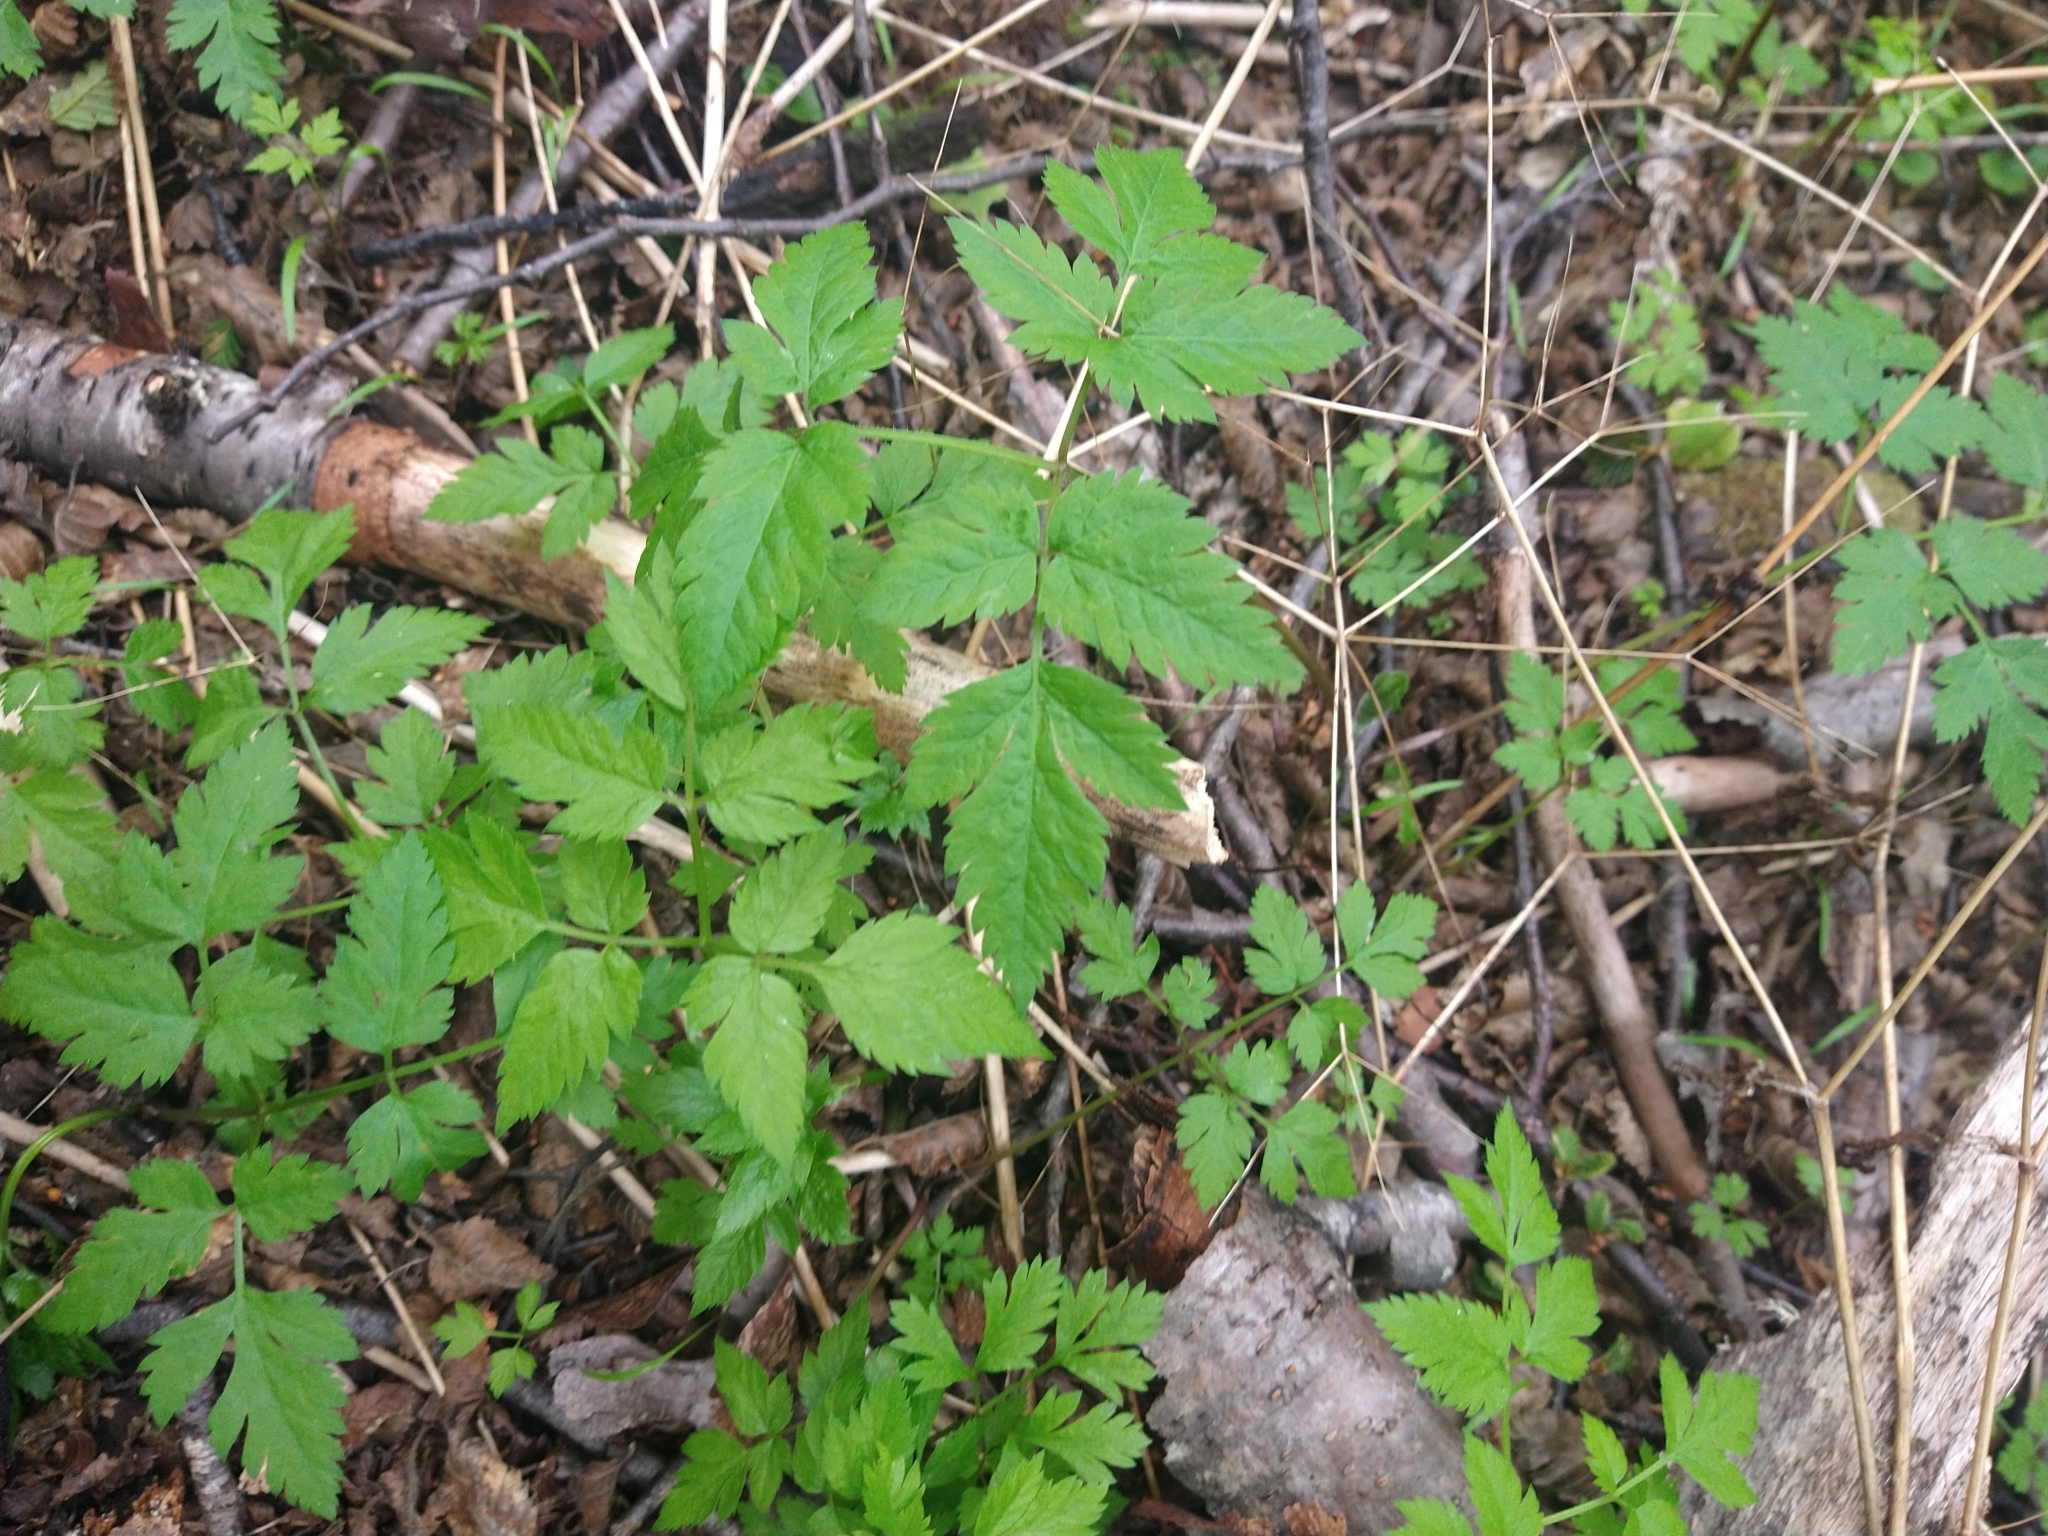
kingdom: Plantae
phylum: Tracheophyta
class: Magnoliopsida
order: Apiales
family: Apiaceae
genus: Osmorhiza
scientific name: Osmorhiza berteroi
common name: Mountain sweet cicely
